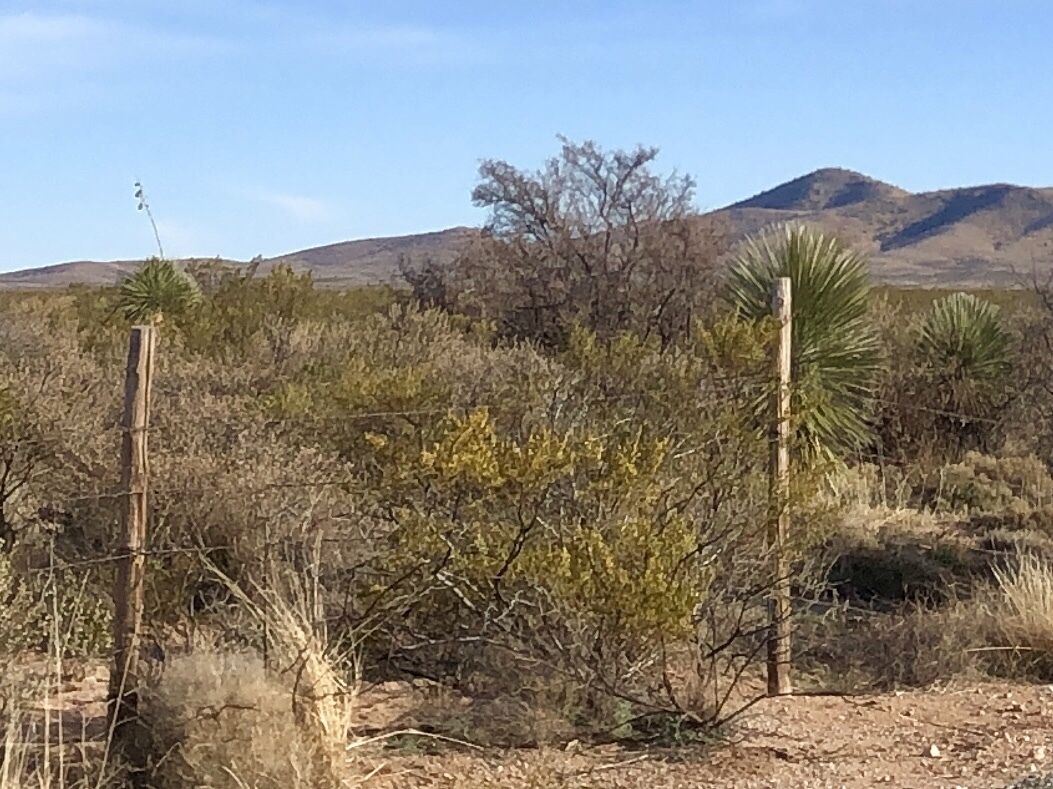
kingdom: Plantae
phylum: Tracheophyta
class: Magnoliopsida
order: Zygophyllales
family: Zygophyllaceae
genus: Larrea
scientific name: Larrea tridentata
